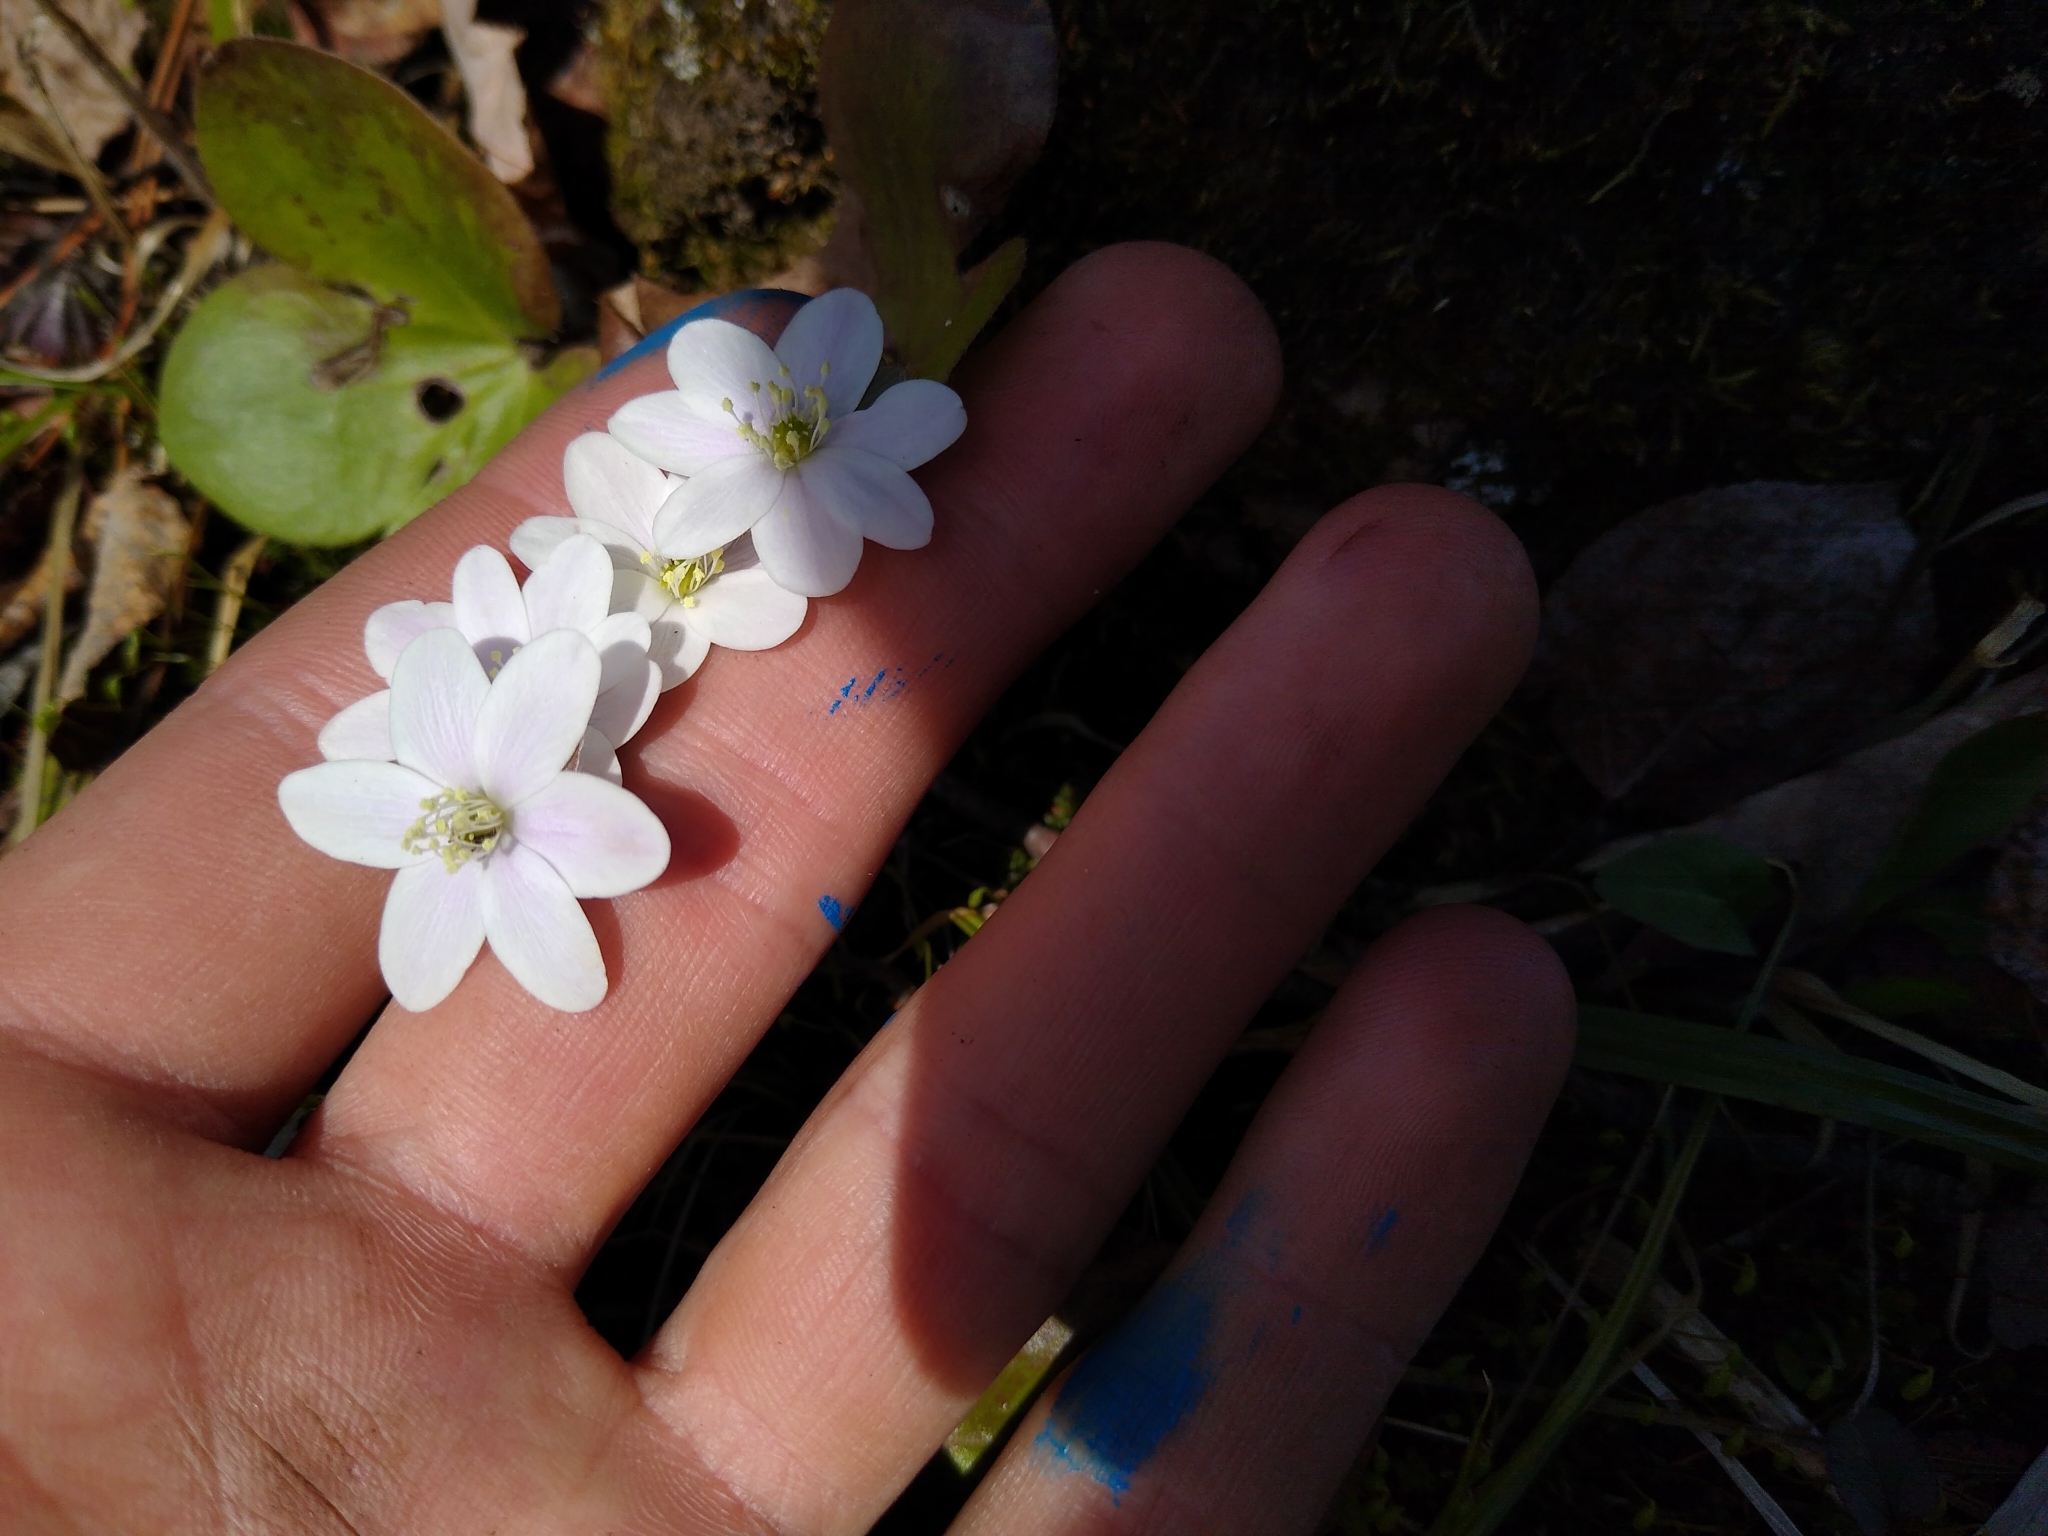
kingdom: Plantae
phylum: Tracheophyta
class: Magnoliopsida
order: Ranunculales
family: Ranunculaceae
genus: Hepatica
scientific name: Hepatica americana
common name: American hepatica
